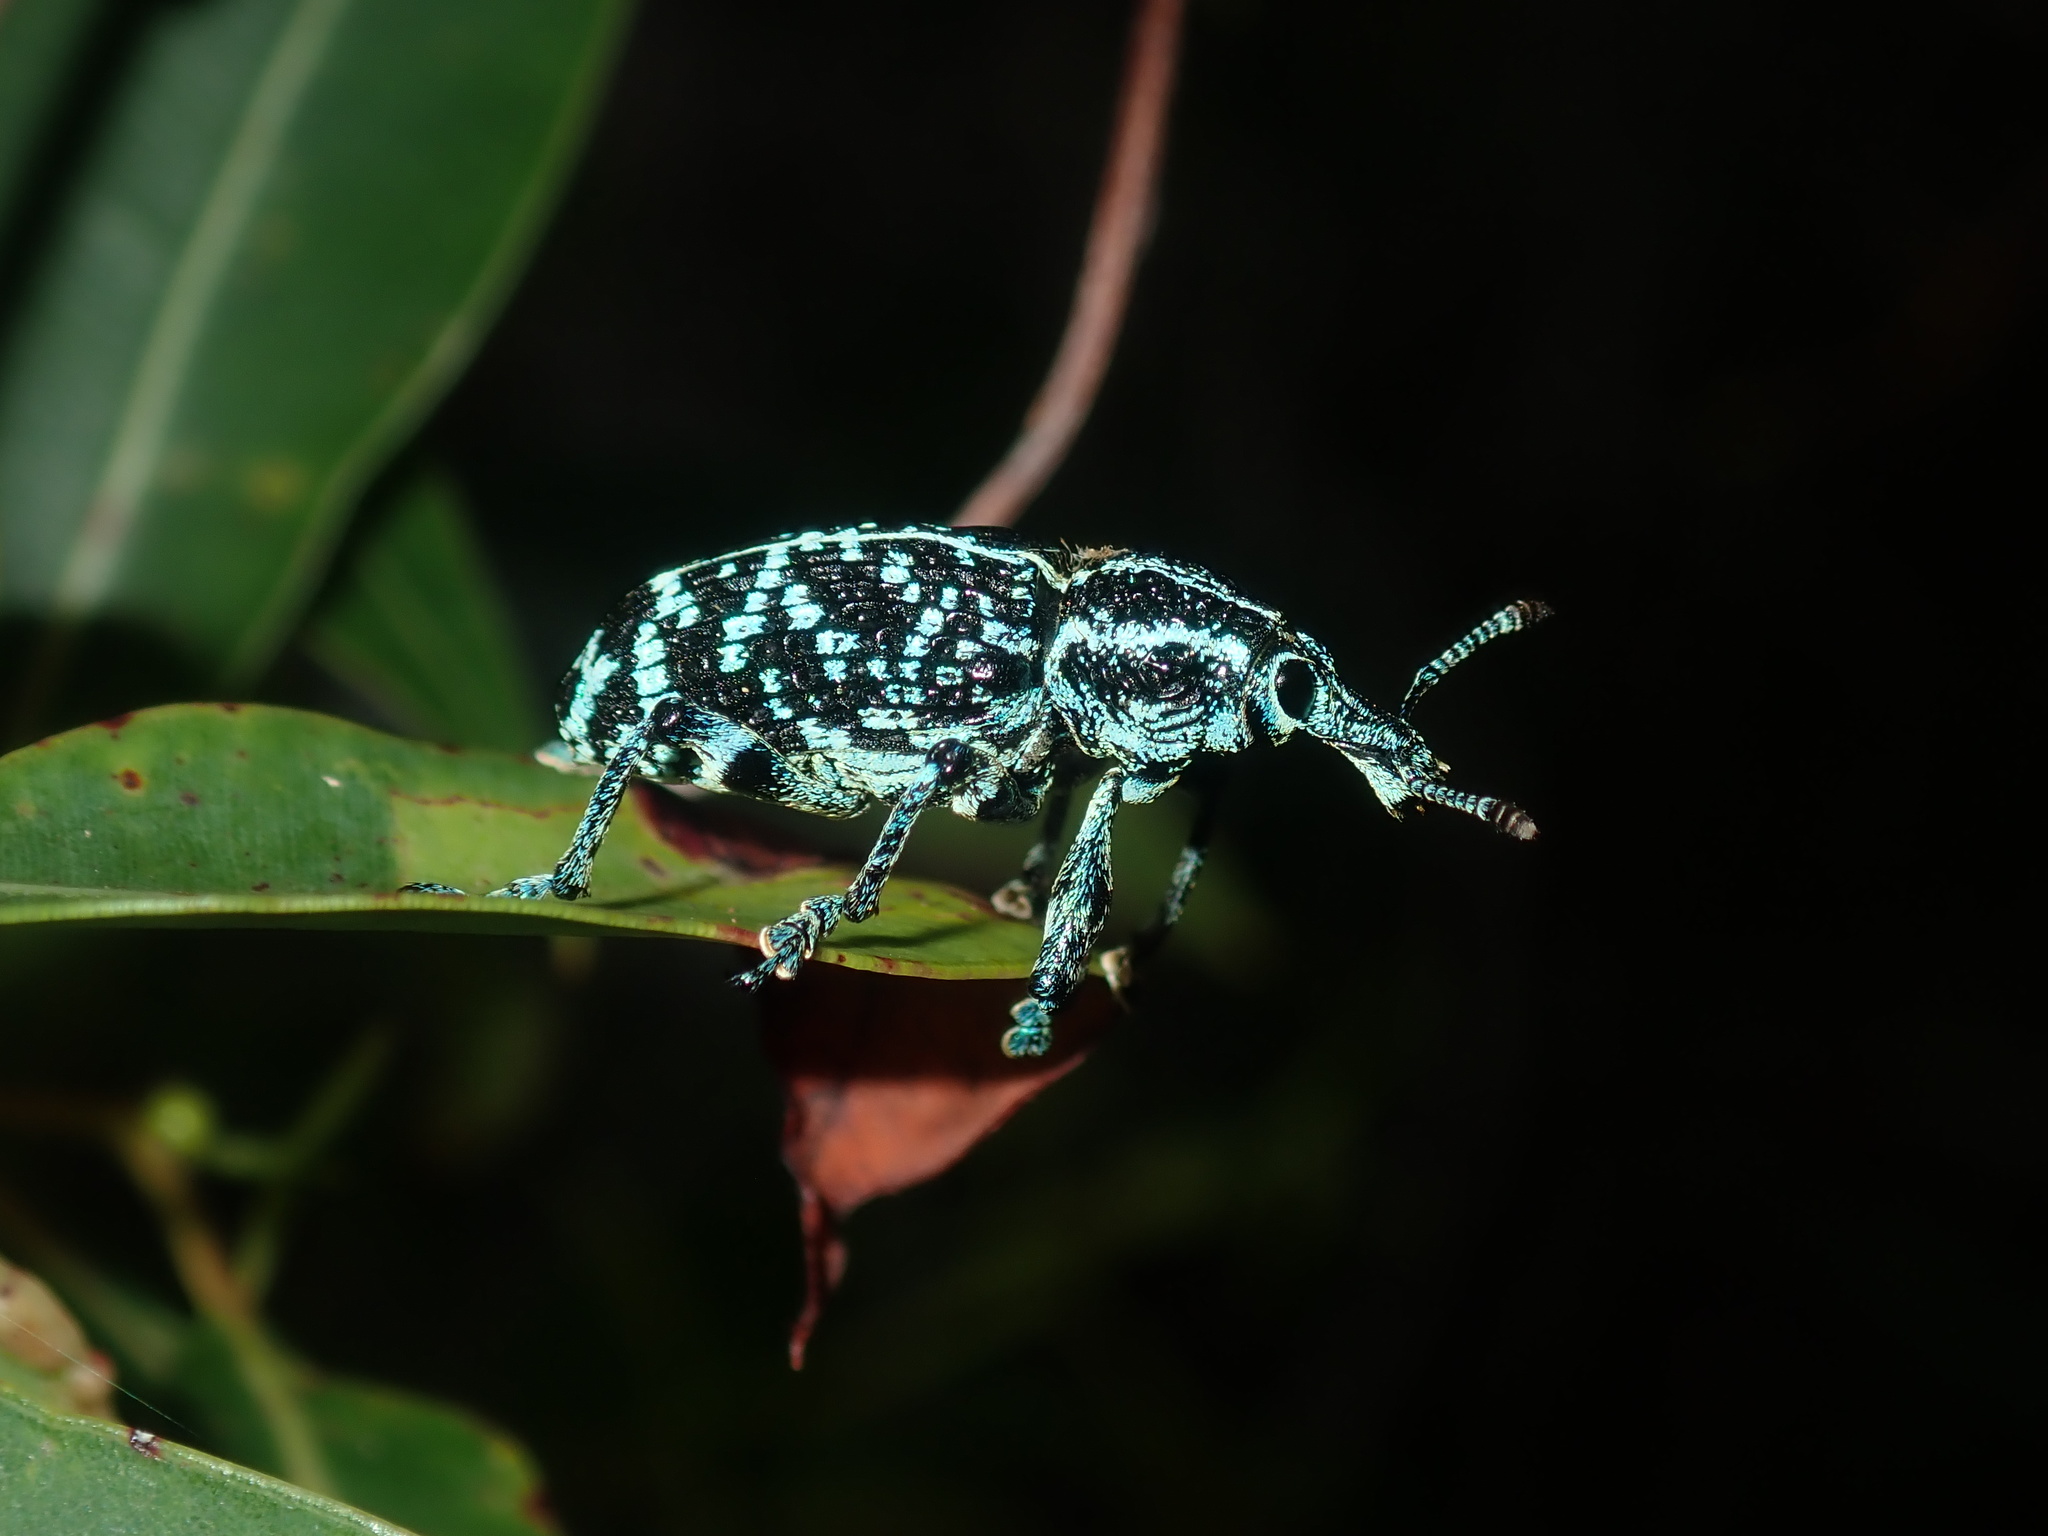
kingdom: Animalia
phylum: Arthropoda
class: Insecta
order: Coleoptera
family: Curculionidae
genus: Chrysolopus
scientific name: Chrysolopus spectabilis
